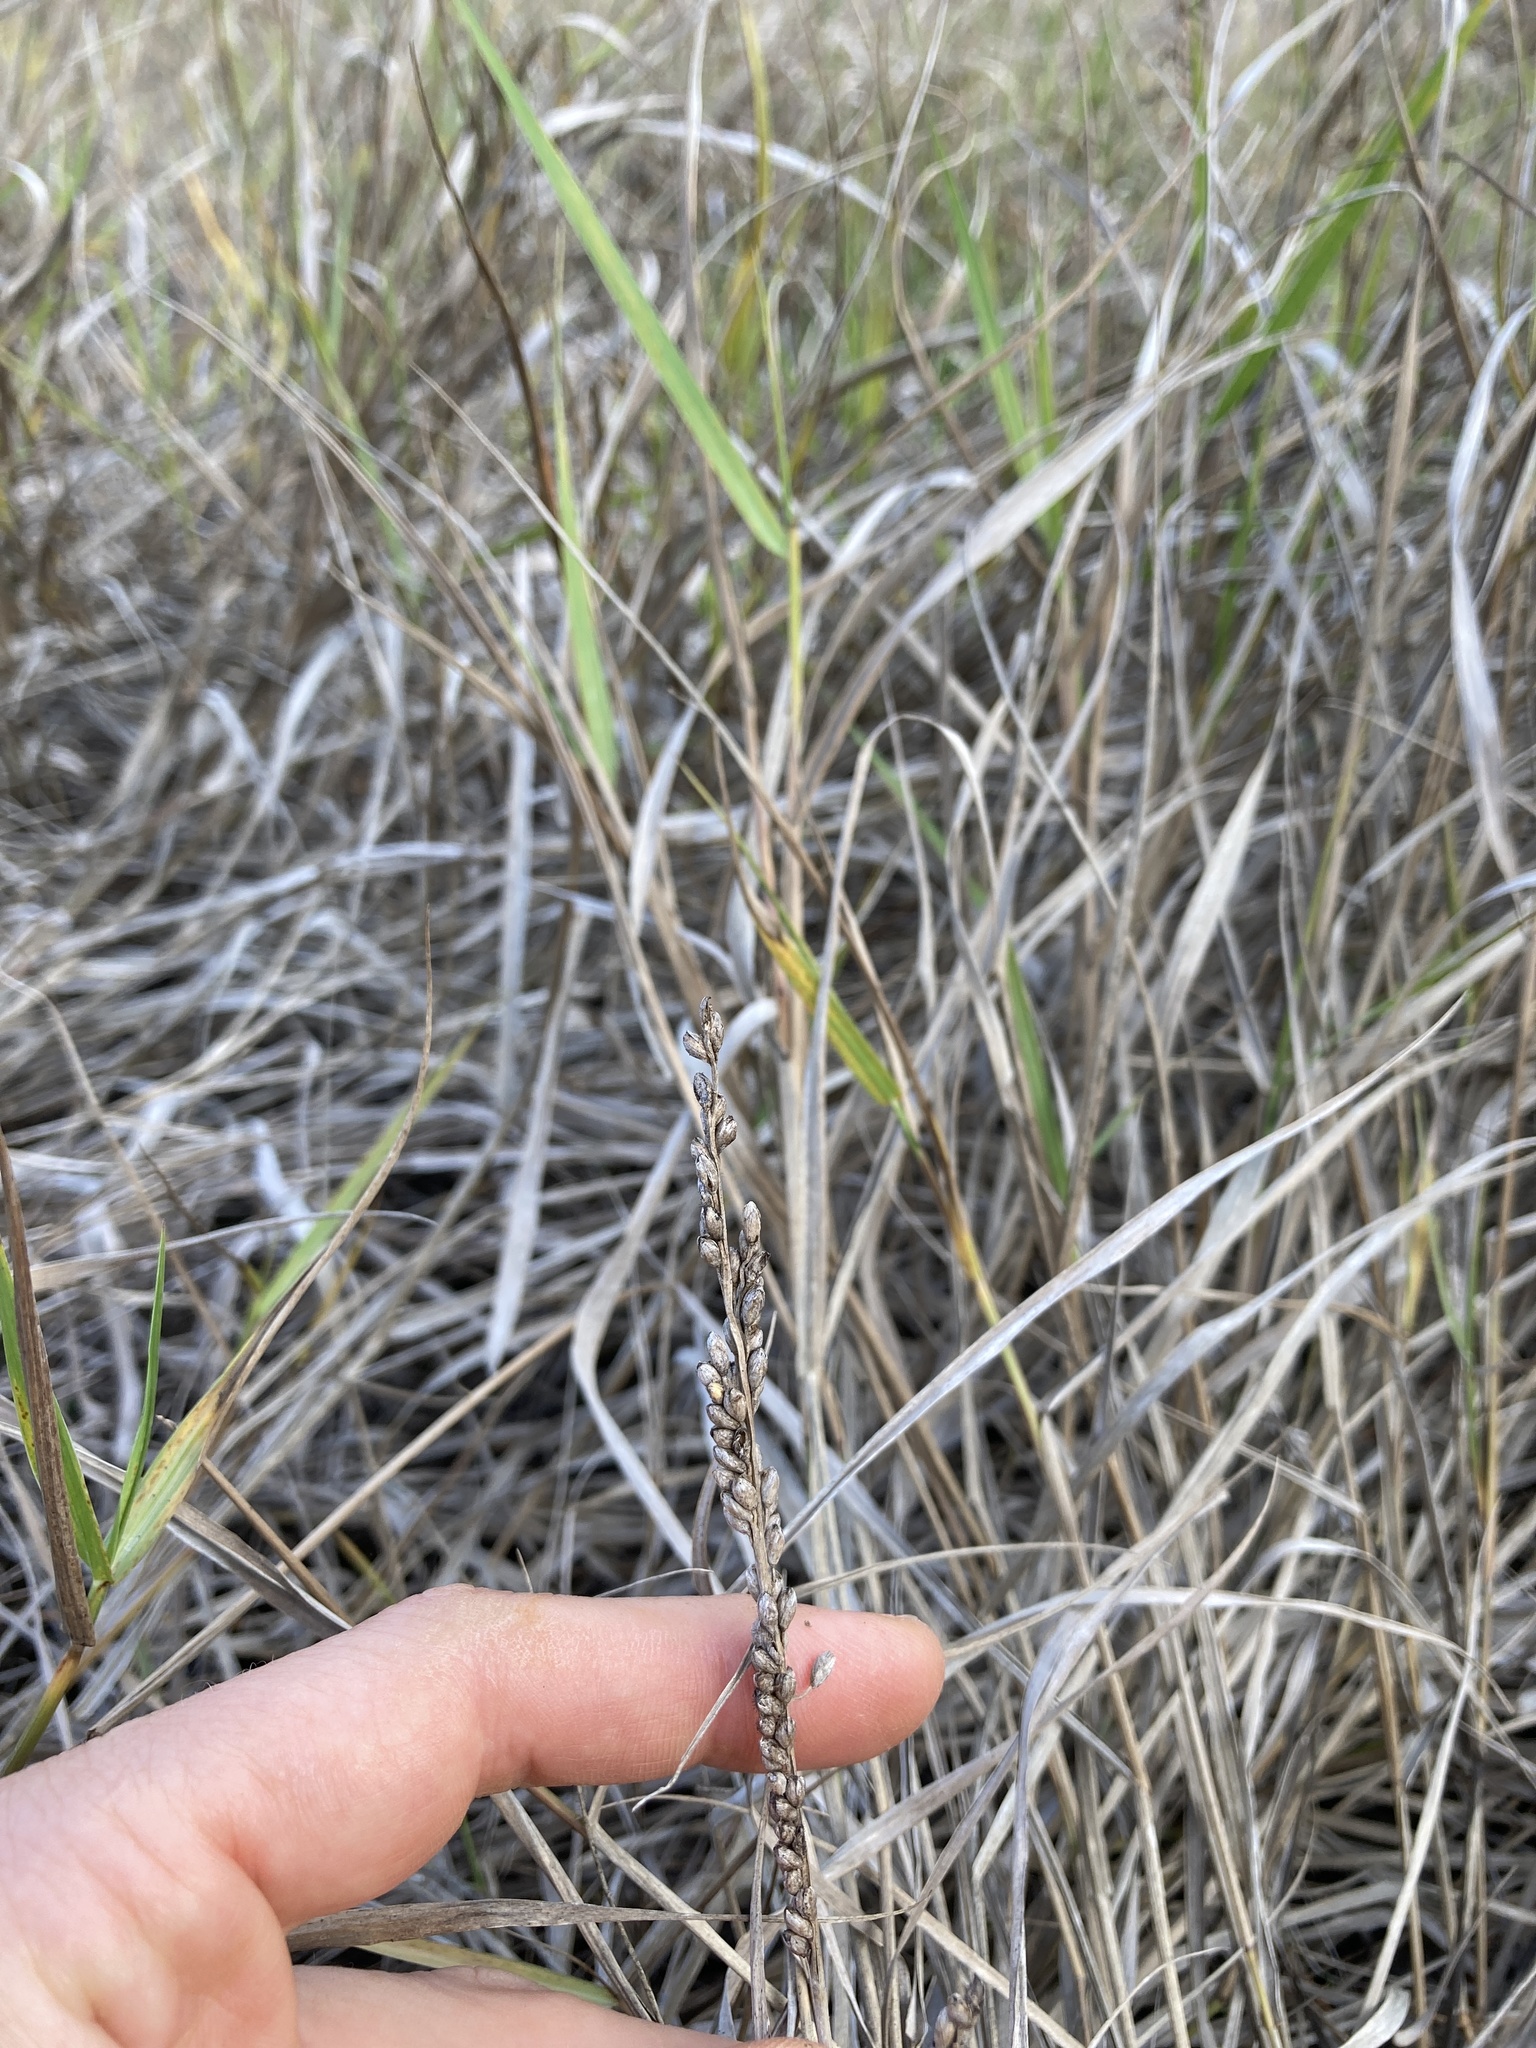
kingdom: Plantae
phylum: Tracheophyta
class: Liliopsida
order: Poales
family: Poaceae
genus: Hopia
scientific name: Hopia obtusa
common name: Vine-mesquite
